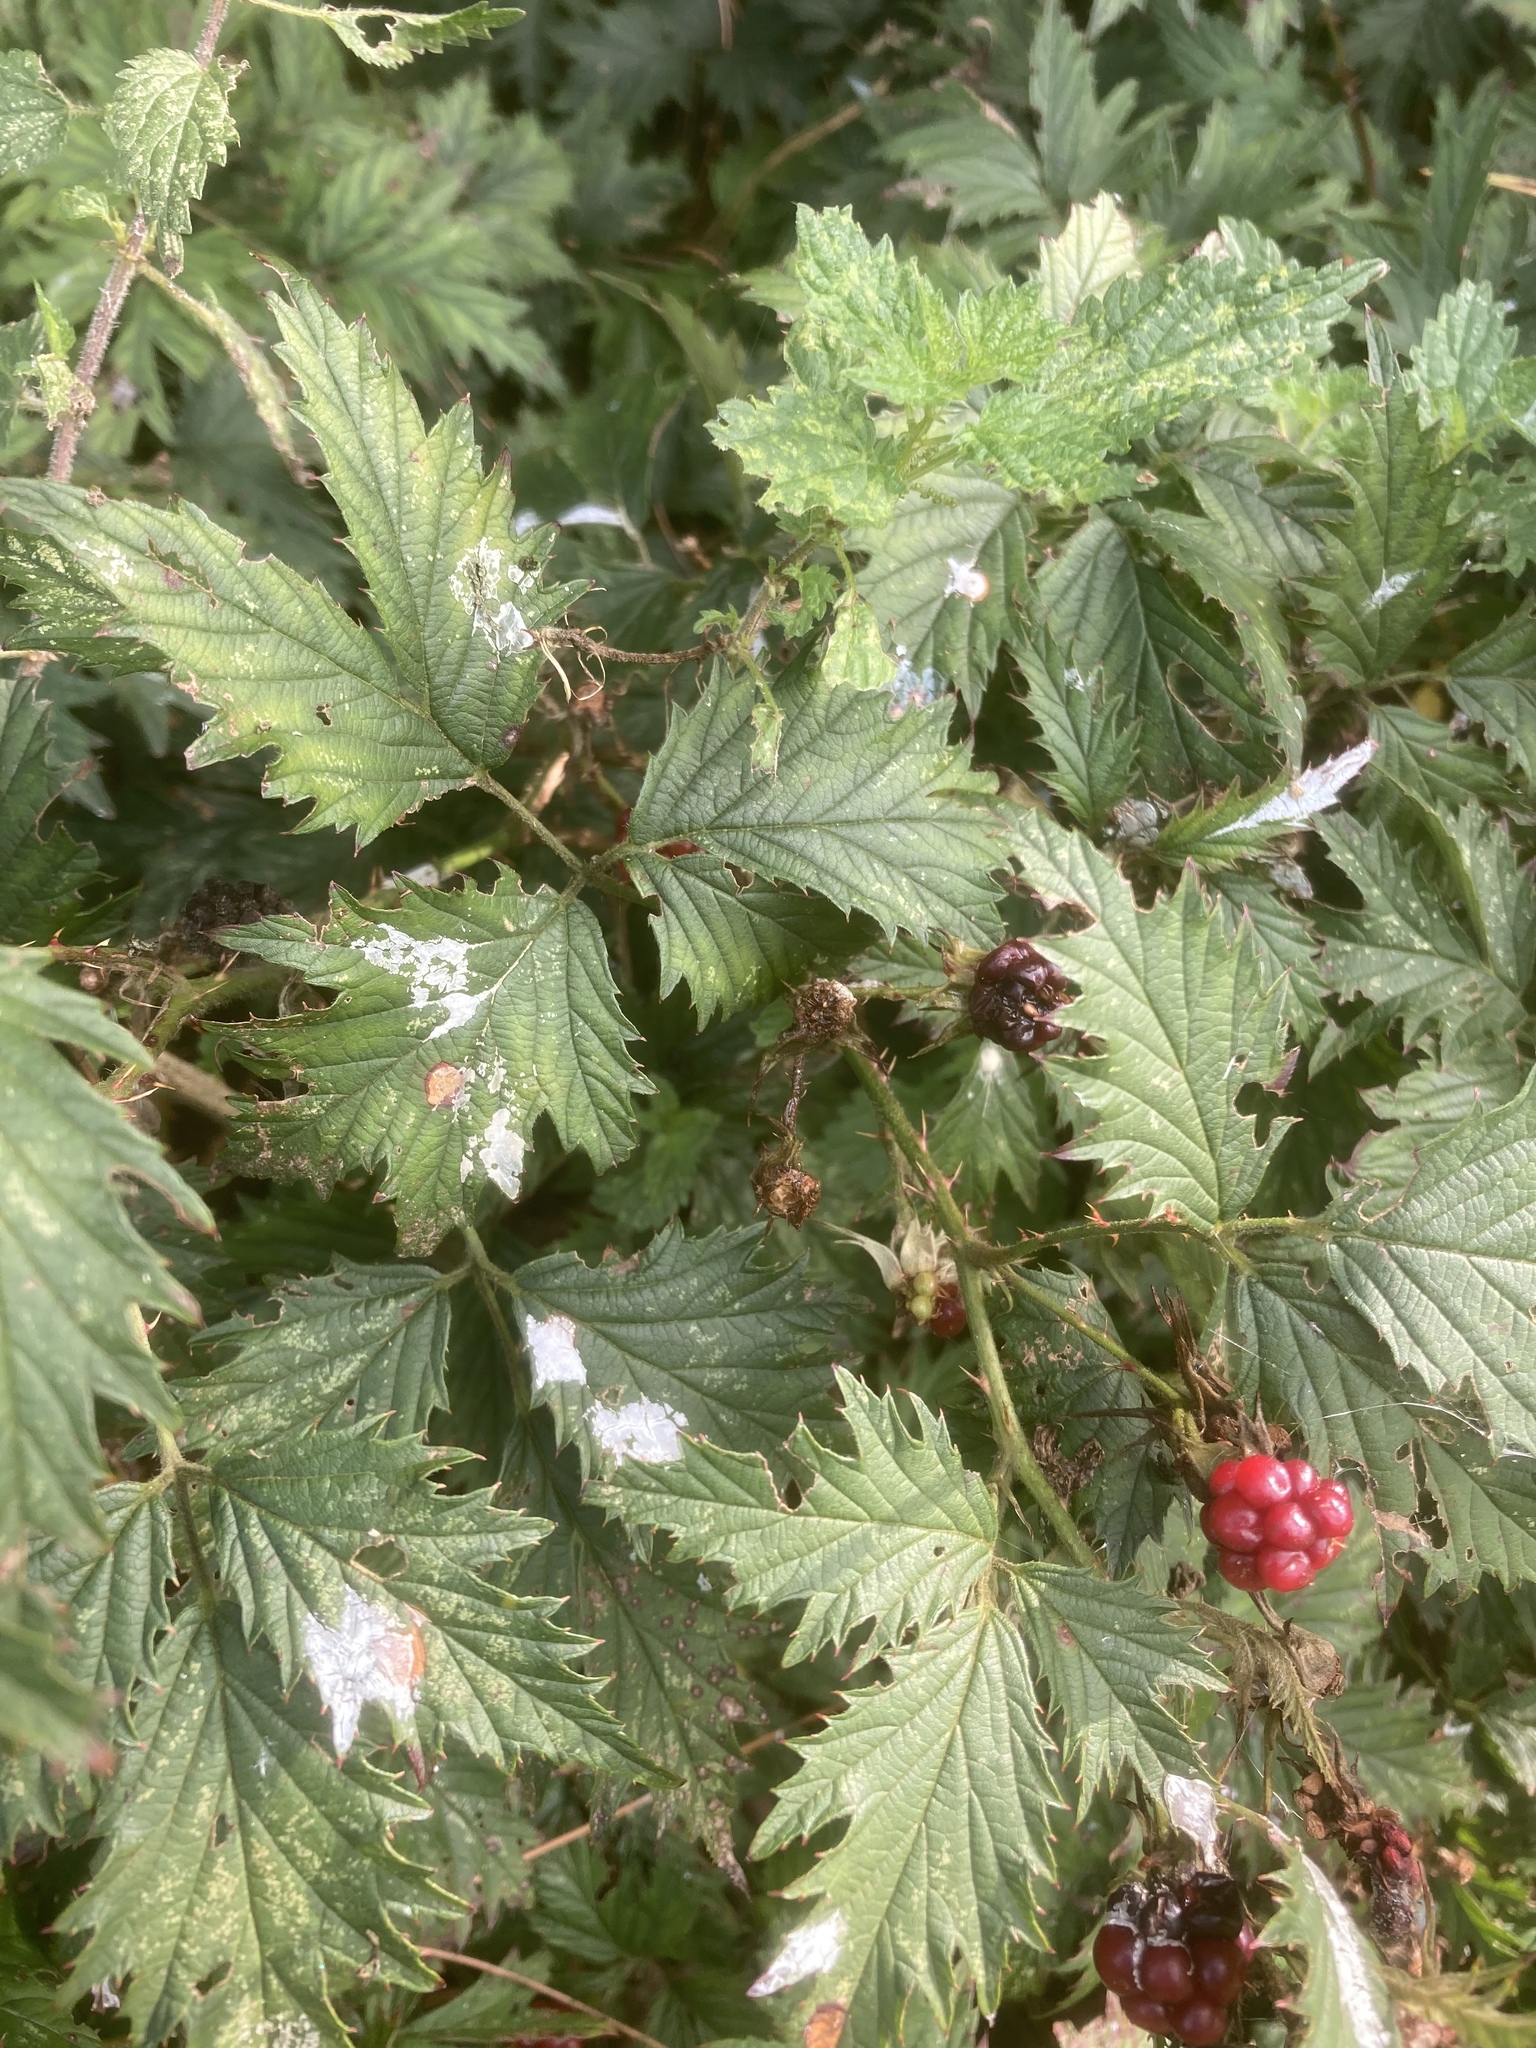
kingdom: Plantae
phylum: Tracheophyta
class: Magnoliopsida
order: Rosales
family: Rosaceae
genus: Rubus
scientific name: Rubus laciniatus
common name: Evergreen blackberry
